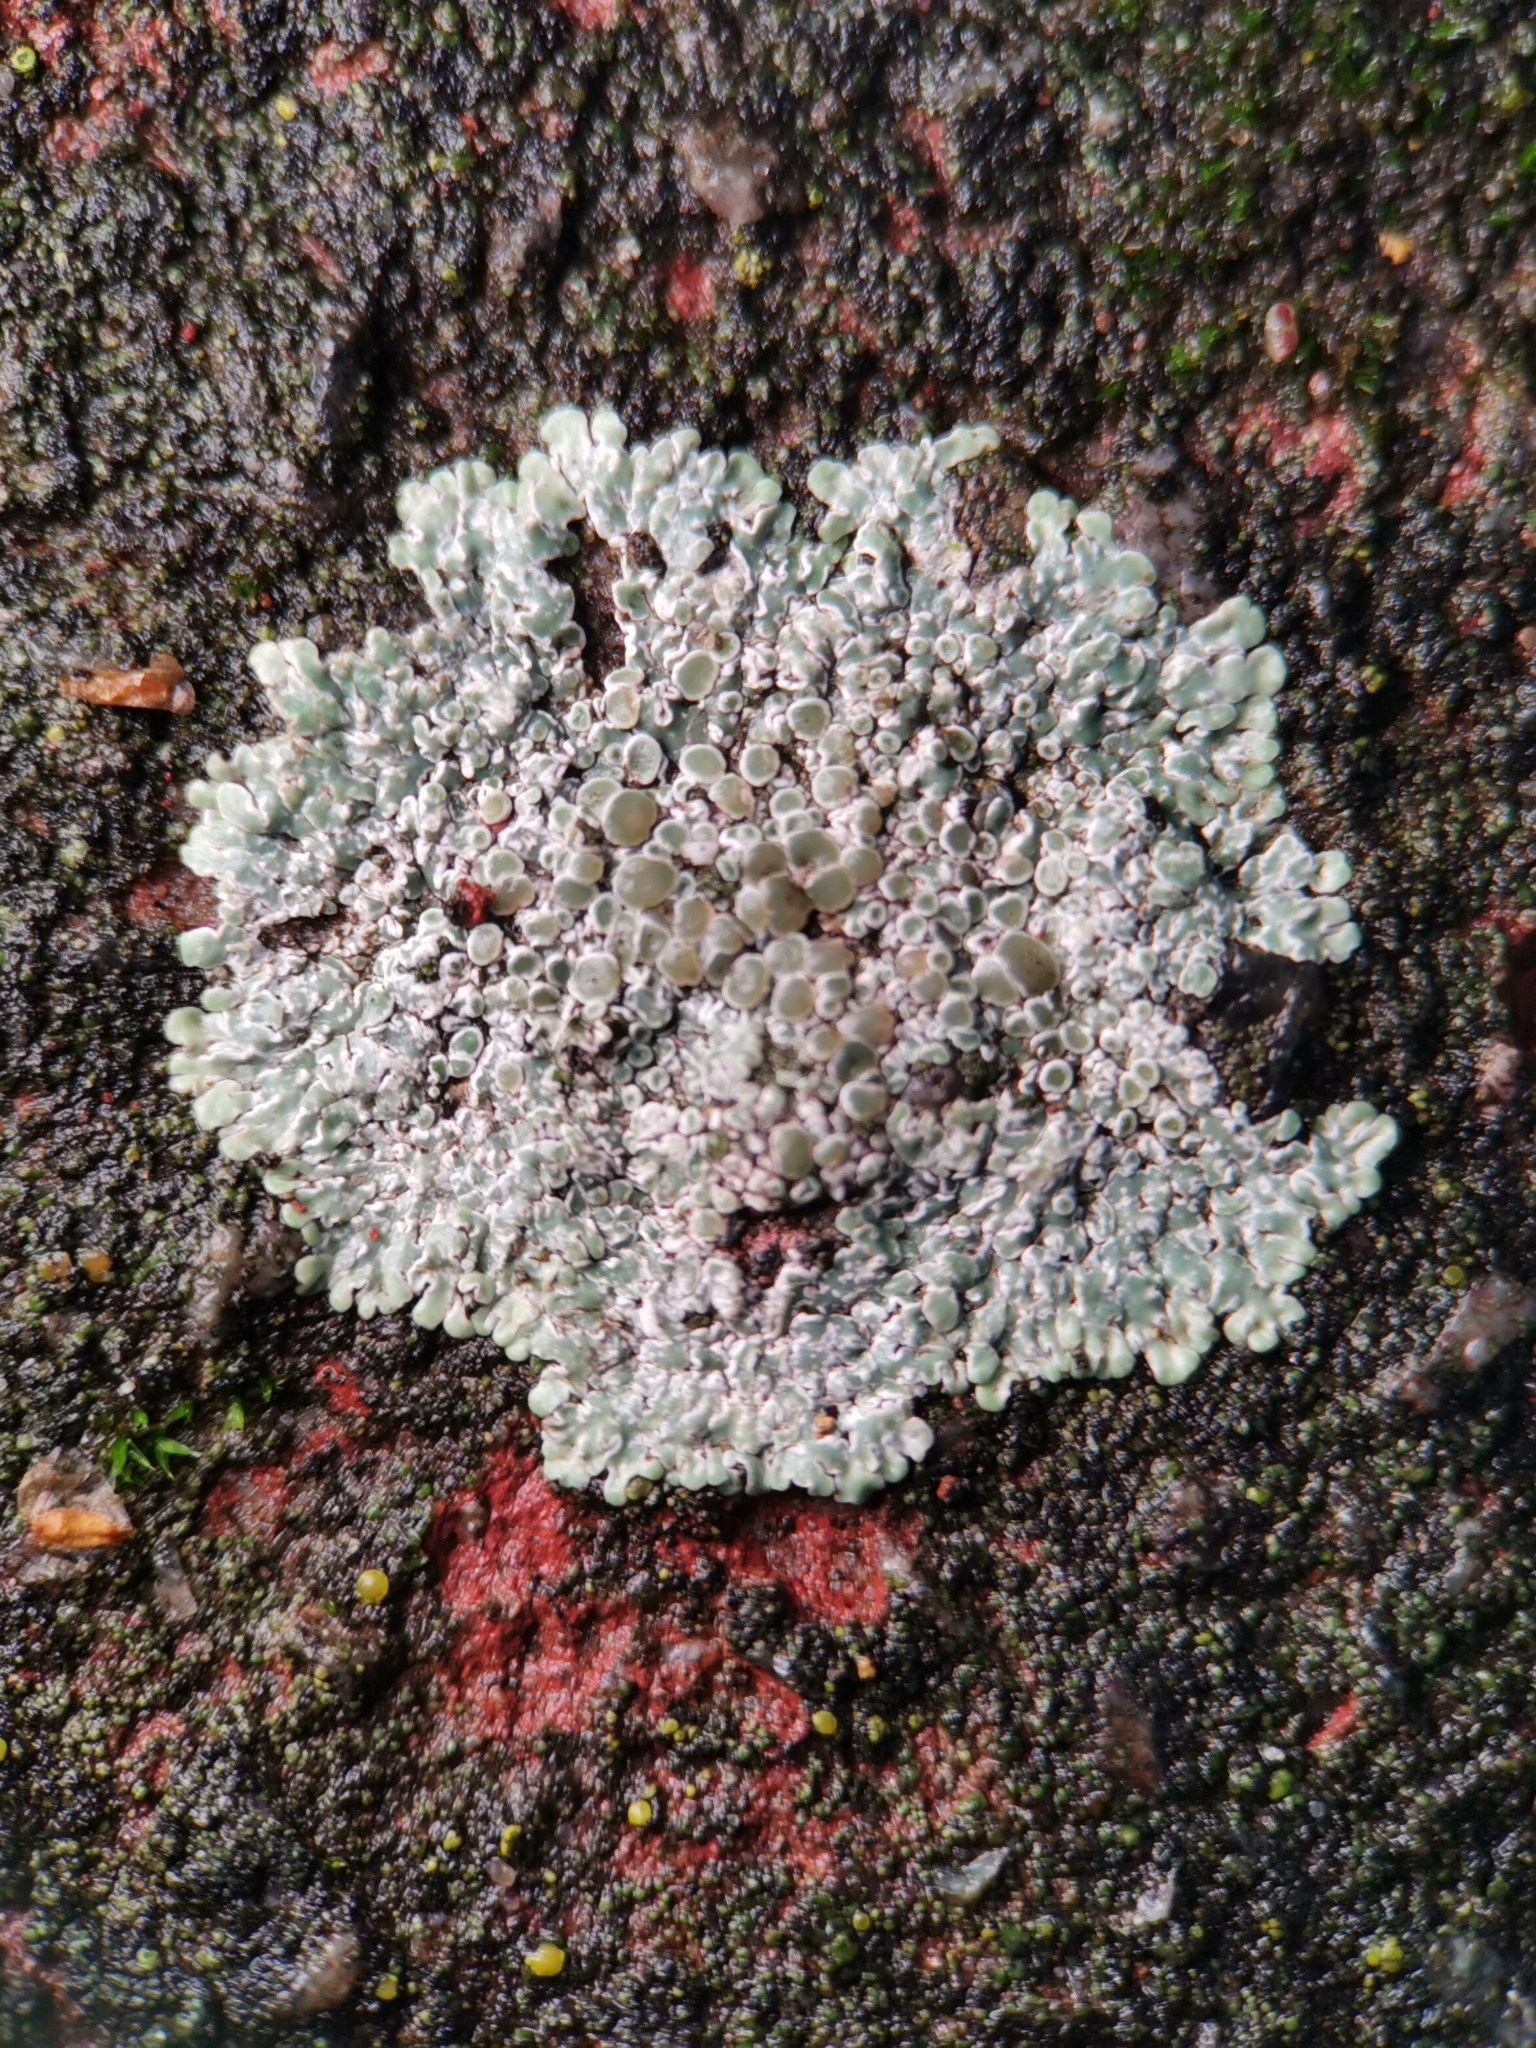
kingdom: Fungi
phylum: Ascomycota
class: Lecanoromycetes
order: Lecanorales
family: Lecanoraceae
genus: Protoparmeliopsis
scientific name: Protoparmeliopsis muralis
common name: Stonewall rim lichen
